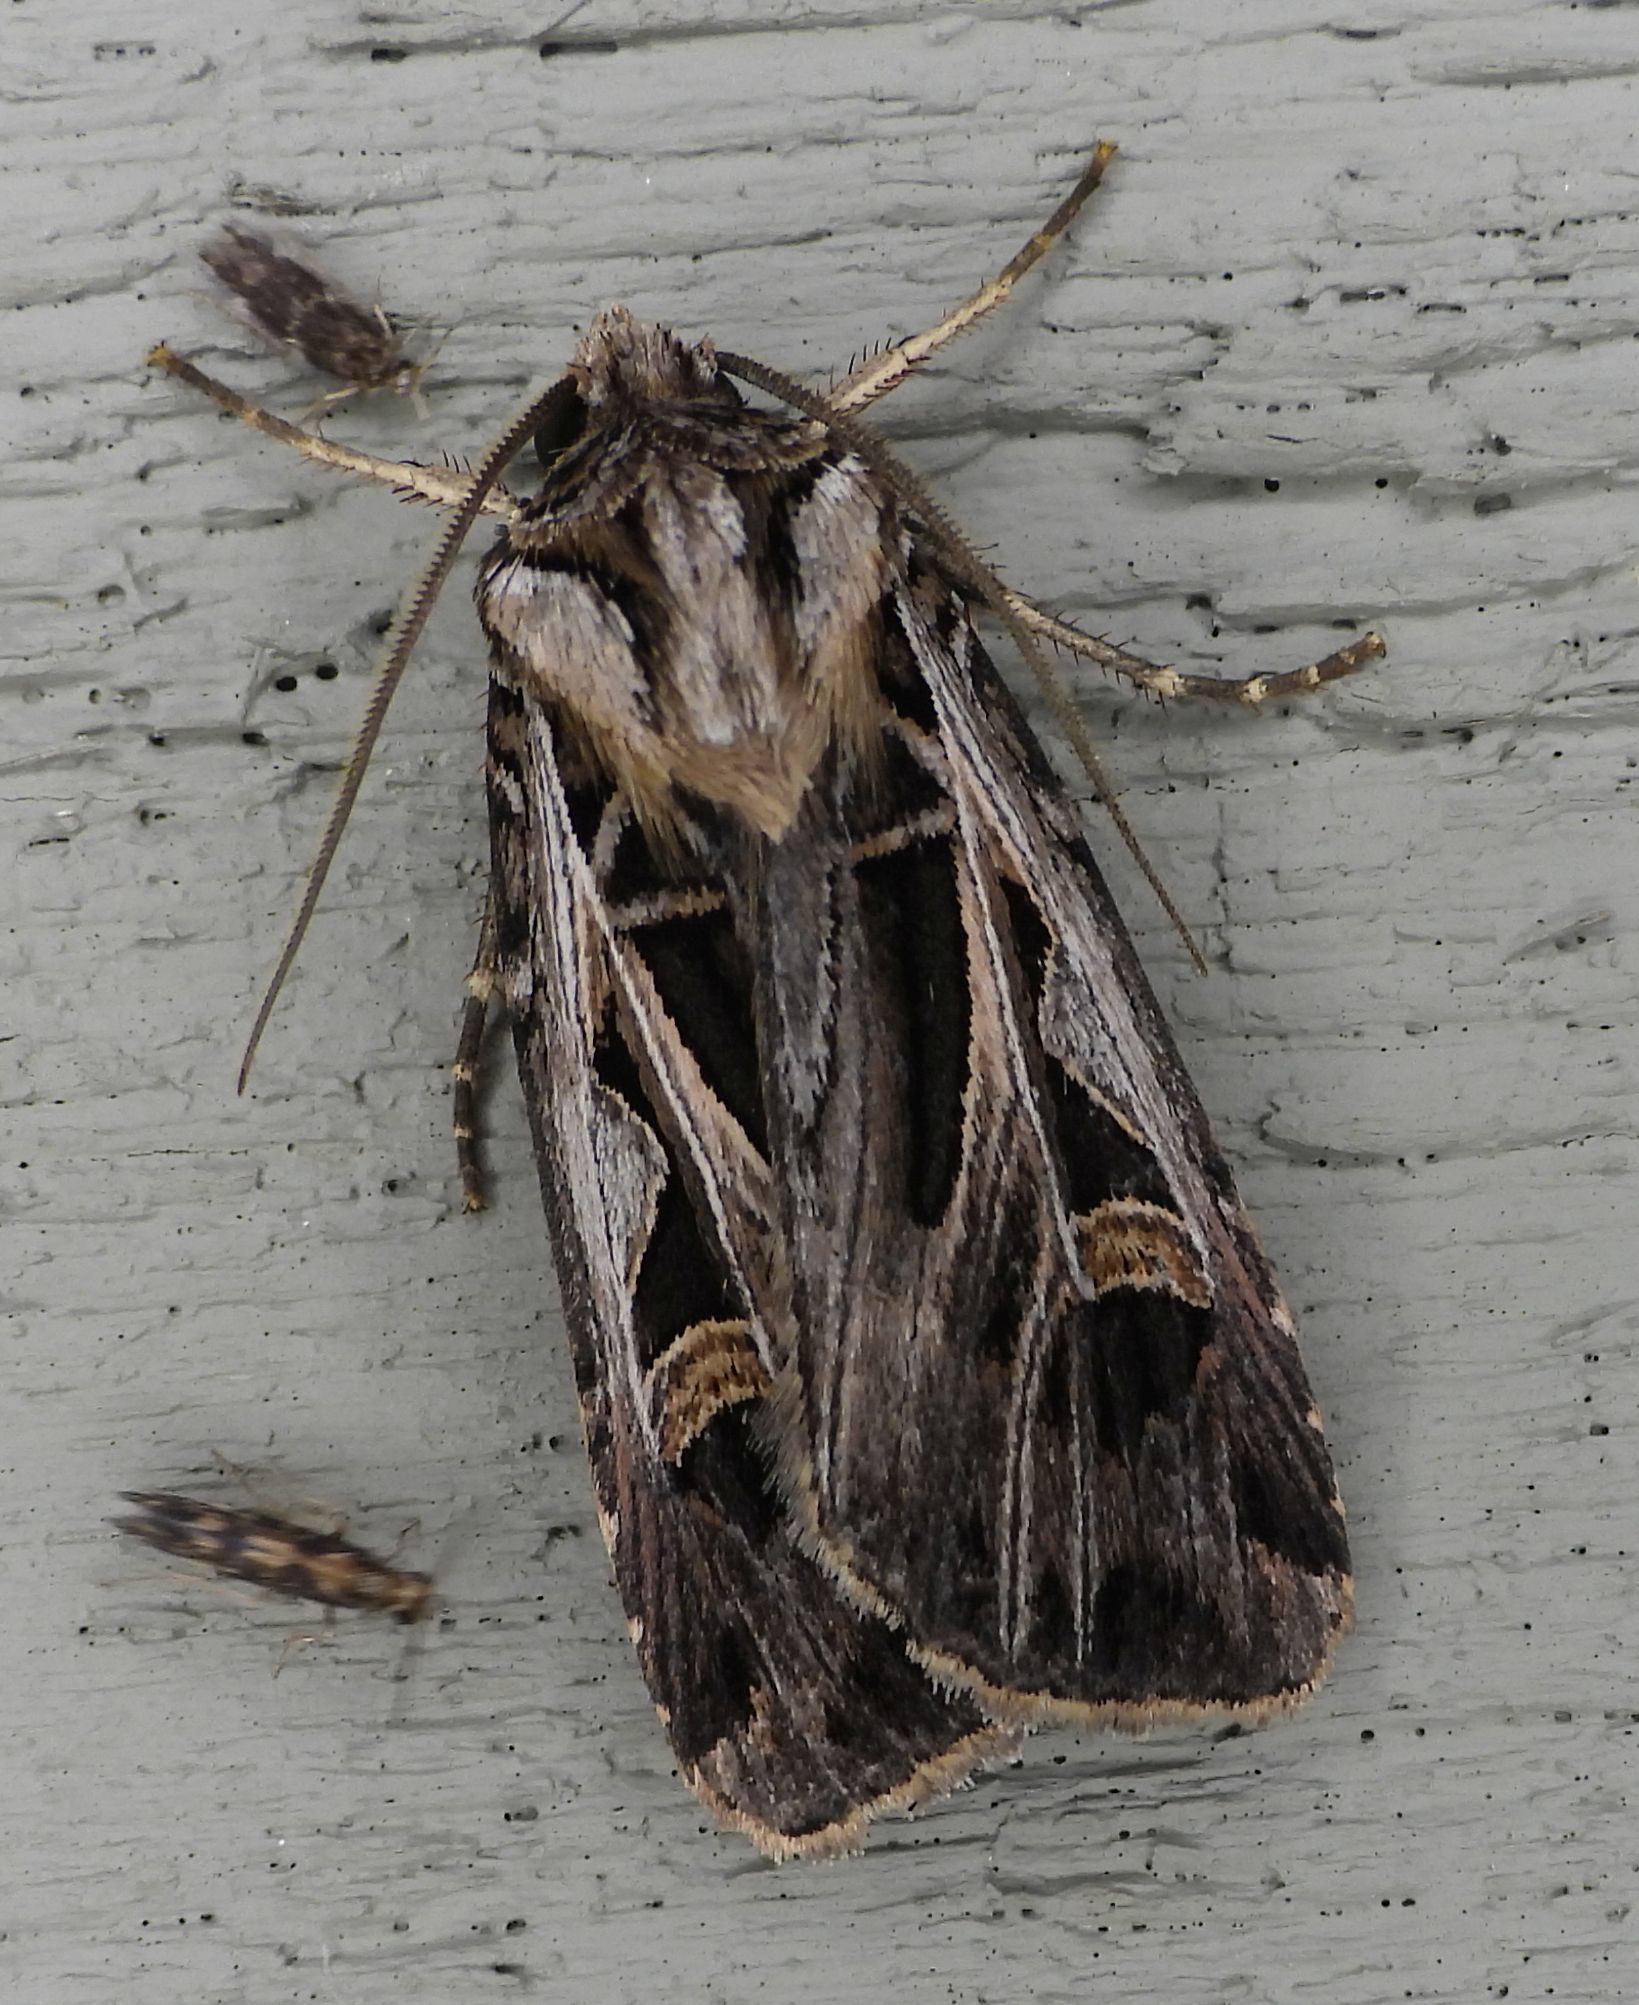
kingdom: Animalia
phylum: Arthropoda
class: Insecta
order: Lepidoptera
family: Noctuidae
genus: Feltia
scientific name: Feltia jaculifera
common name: Dingy cutworm moth
